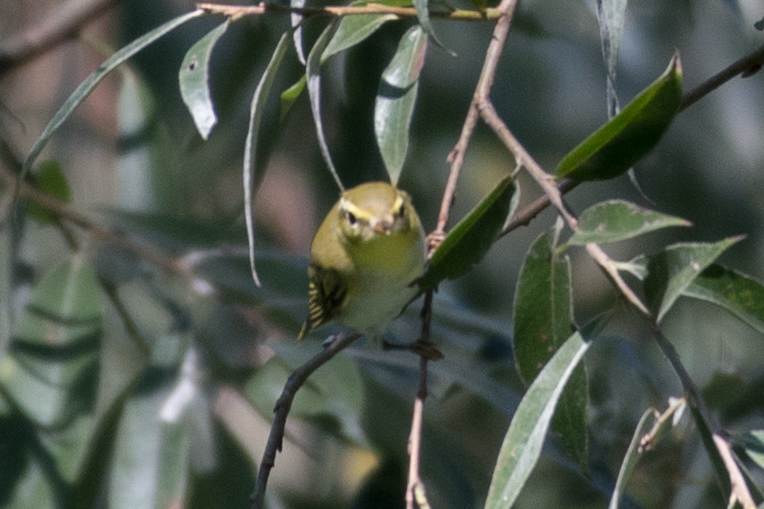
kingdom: Animalia
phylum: Chordata
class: Aves
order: Passeriformes
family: Phylloscopidae
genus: Phylloscopus
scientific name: Phylloscopus sibillatrix
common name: Wood warbler
